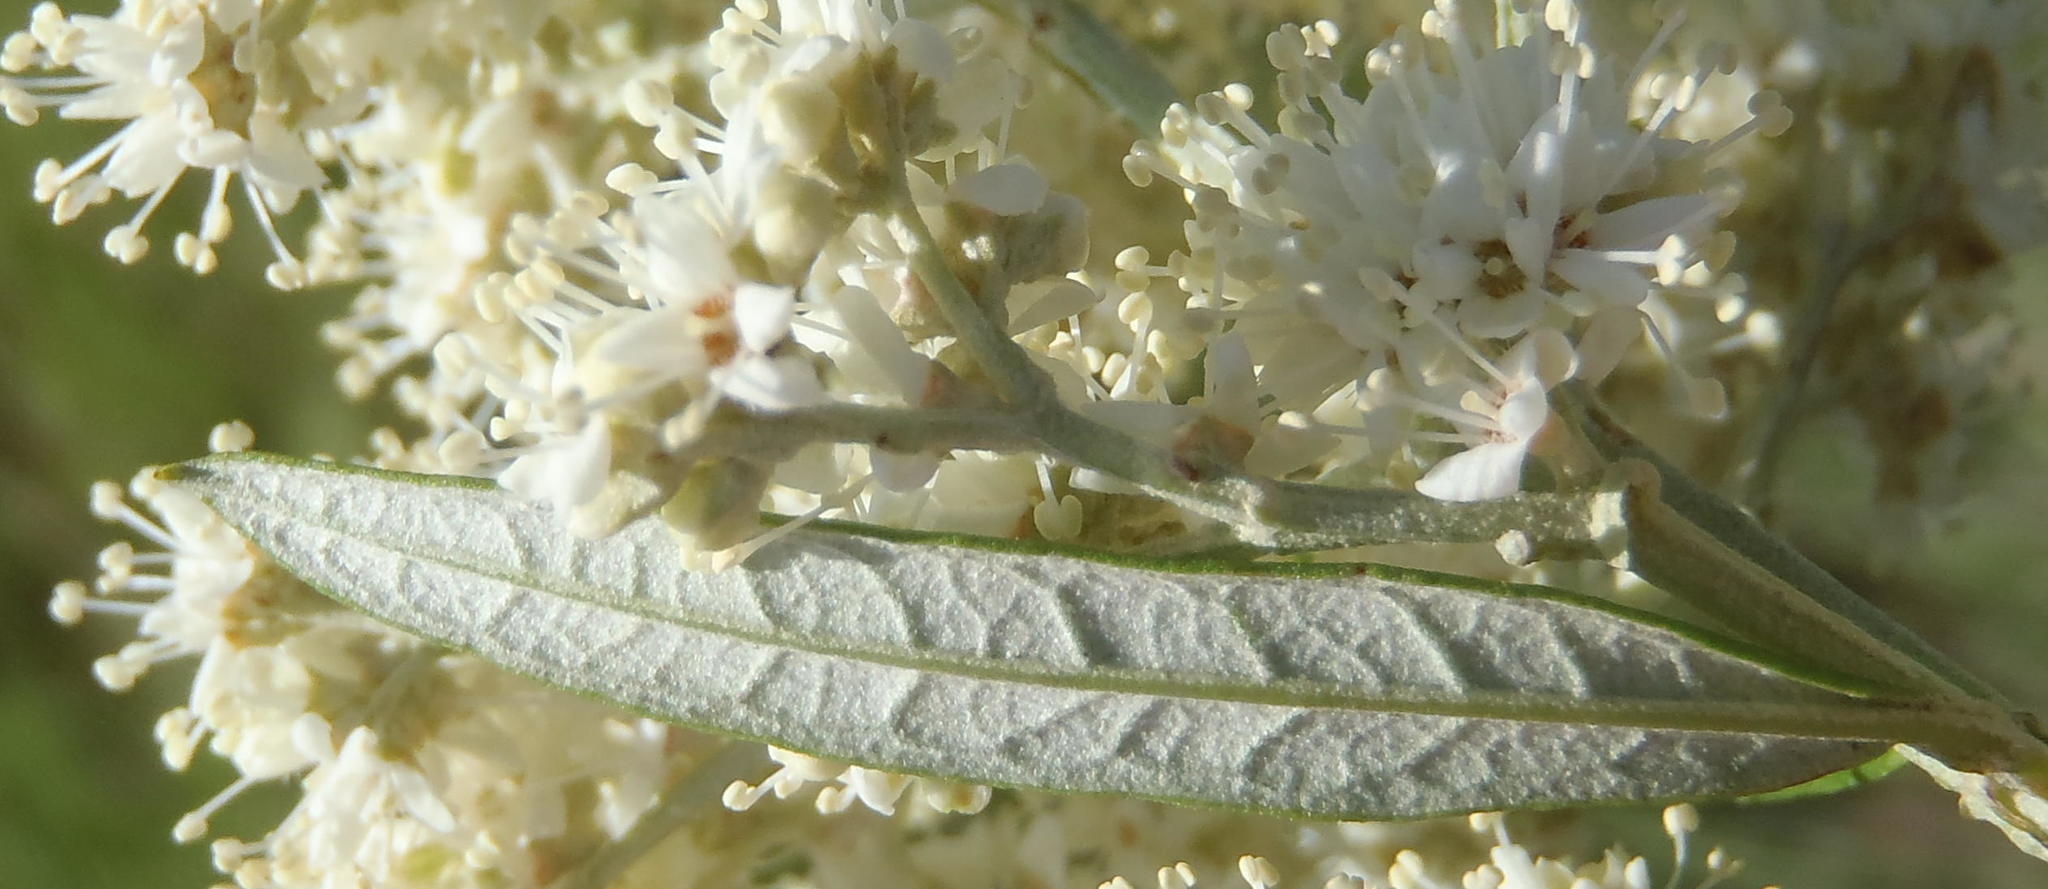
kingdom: Plantae
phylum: Tracheophyta
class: Magnoliopsida
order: Lamiales
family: Scrophulariaceae
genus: Buddleja
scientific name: Buddleja saligna
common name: False olive
